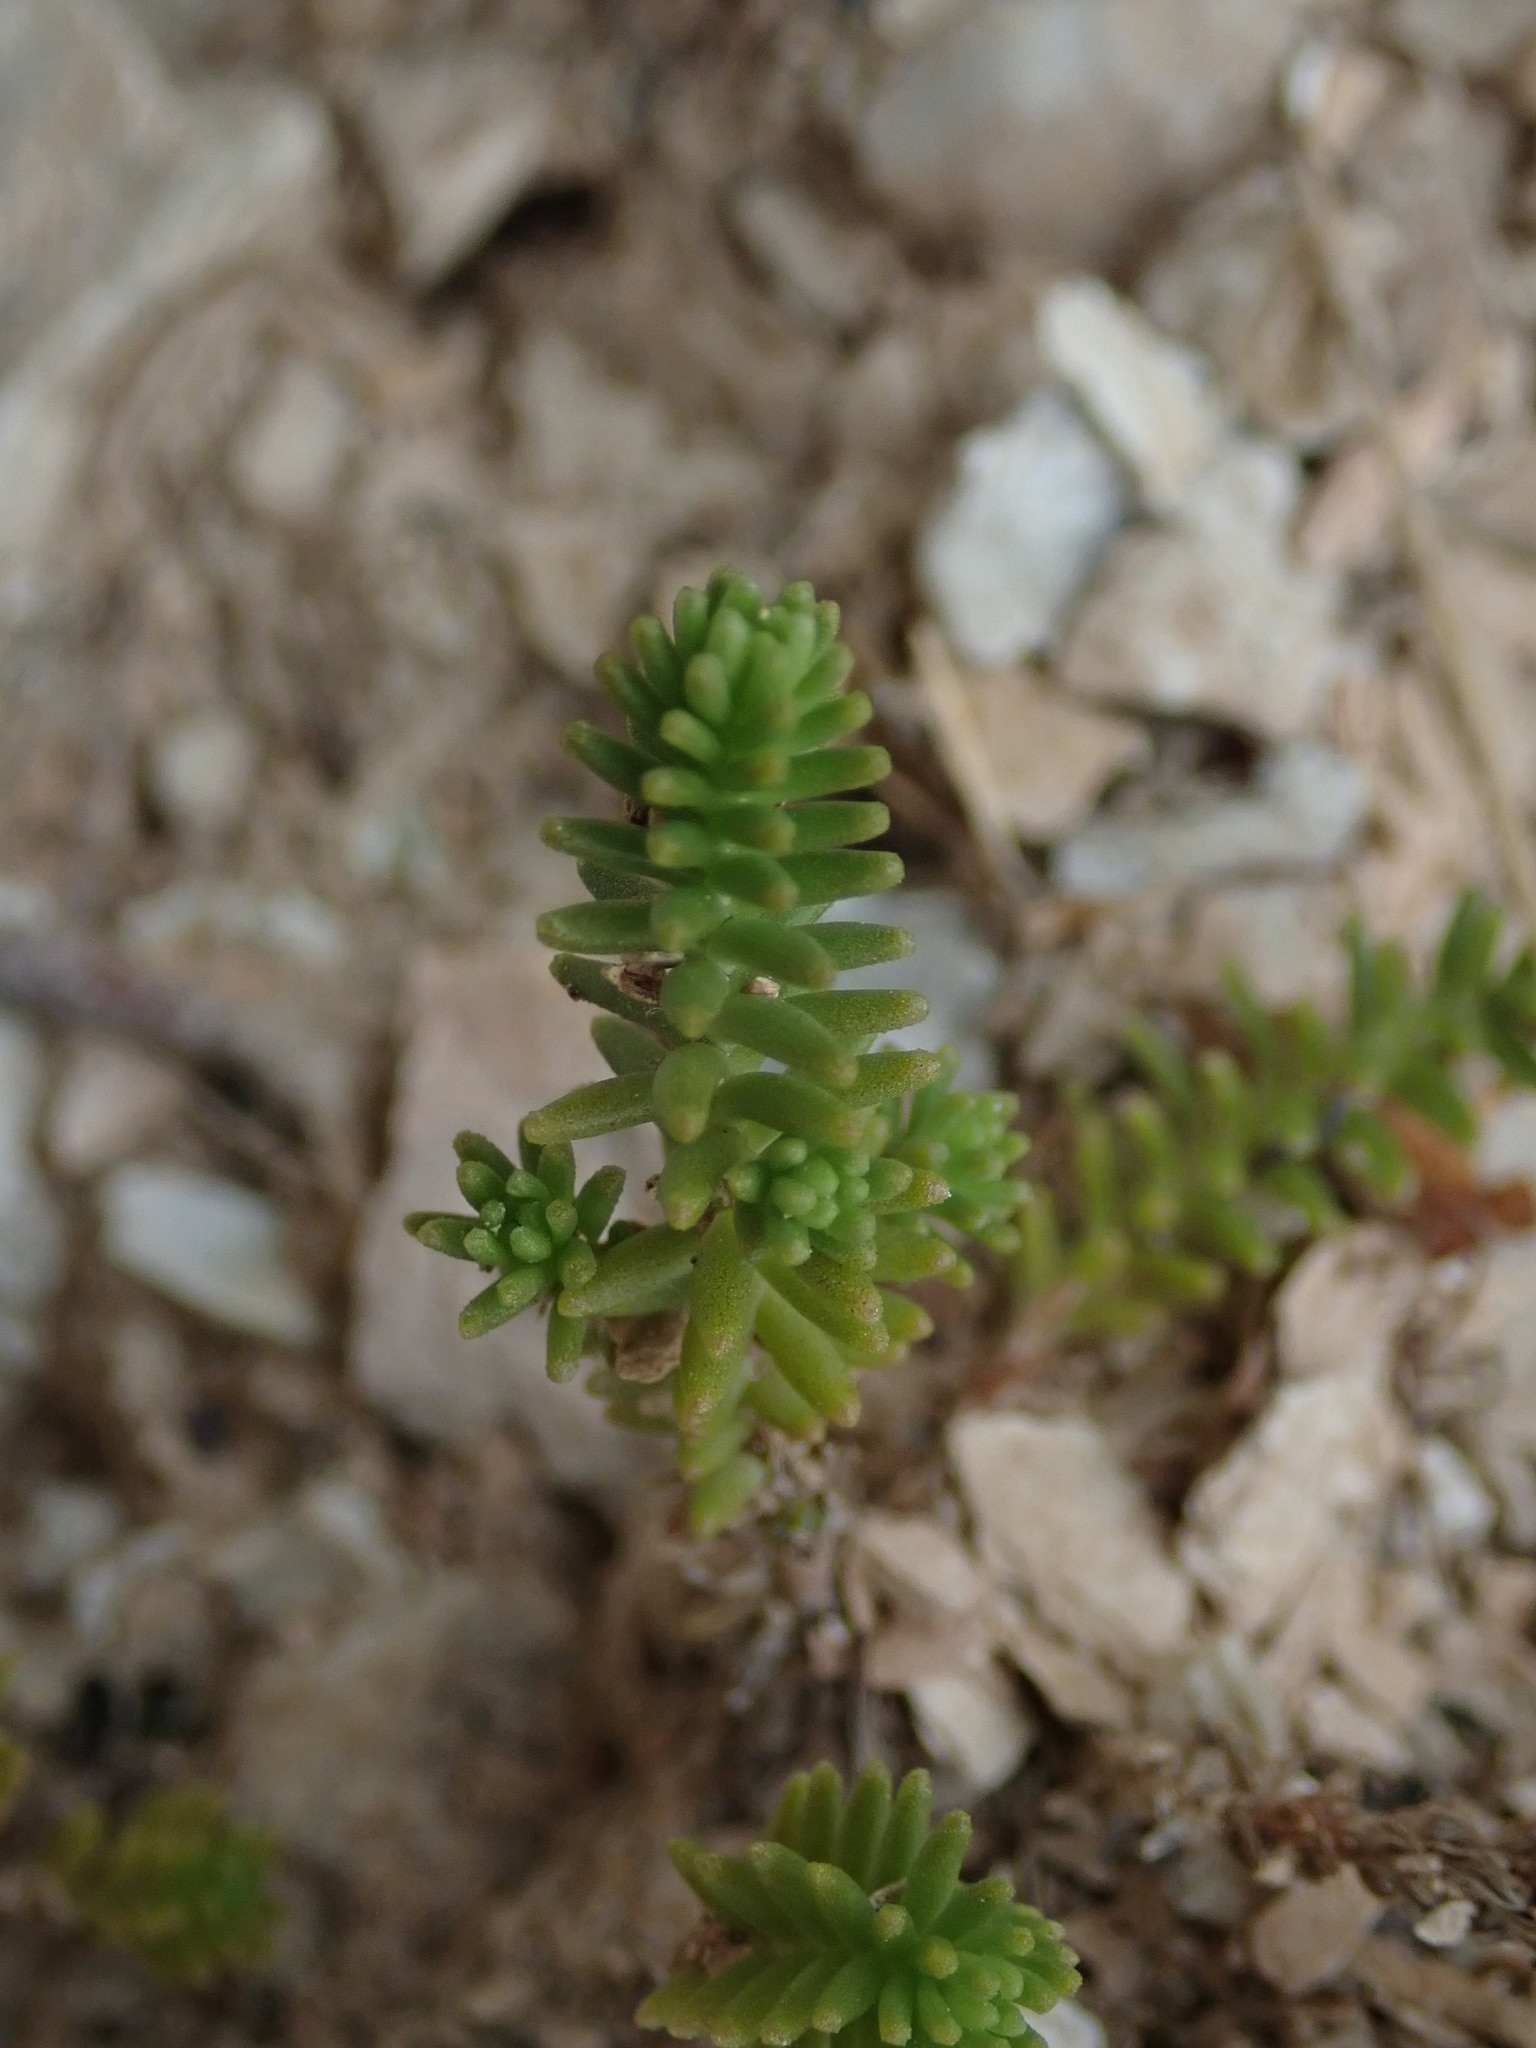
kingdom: Plantae
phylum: Tracheophyta
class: Magnoliopsida
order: Saxifragales
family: Crassulaceae
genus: Sedum
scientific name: Sedum sexangulare
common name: Tasteless stonecrop
